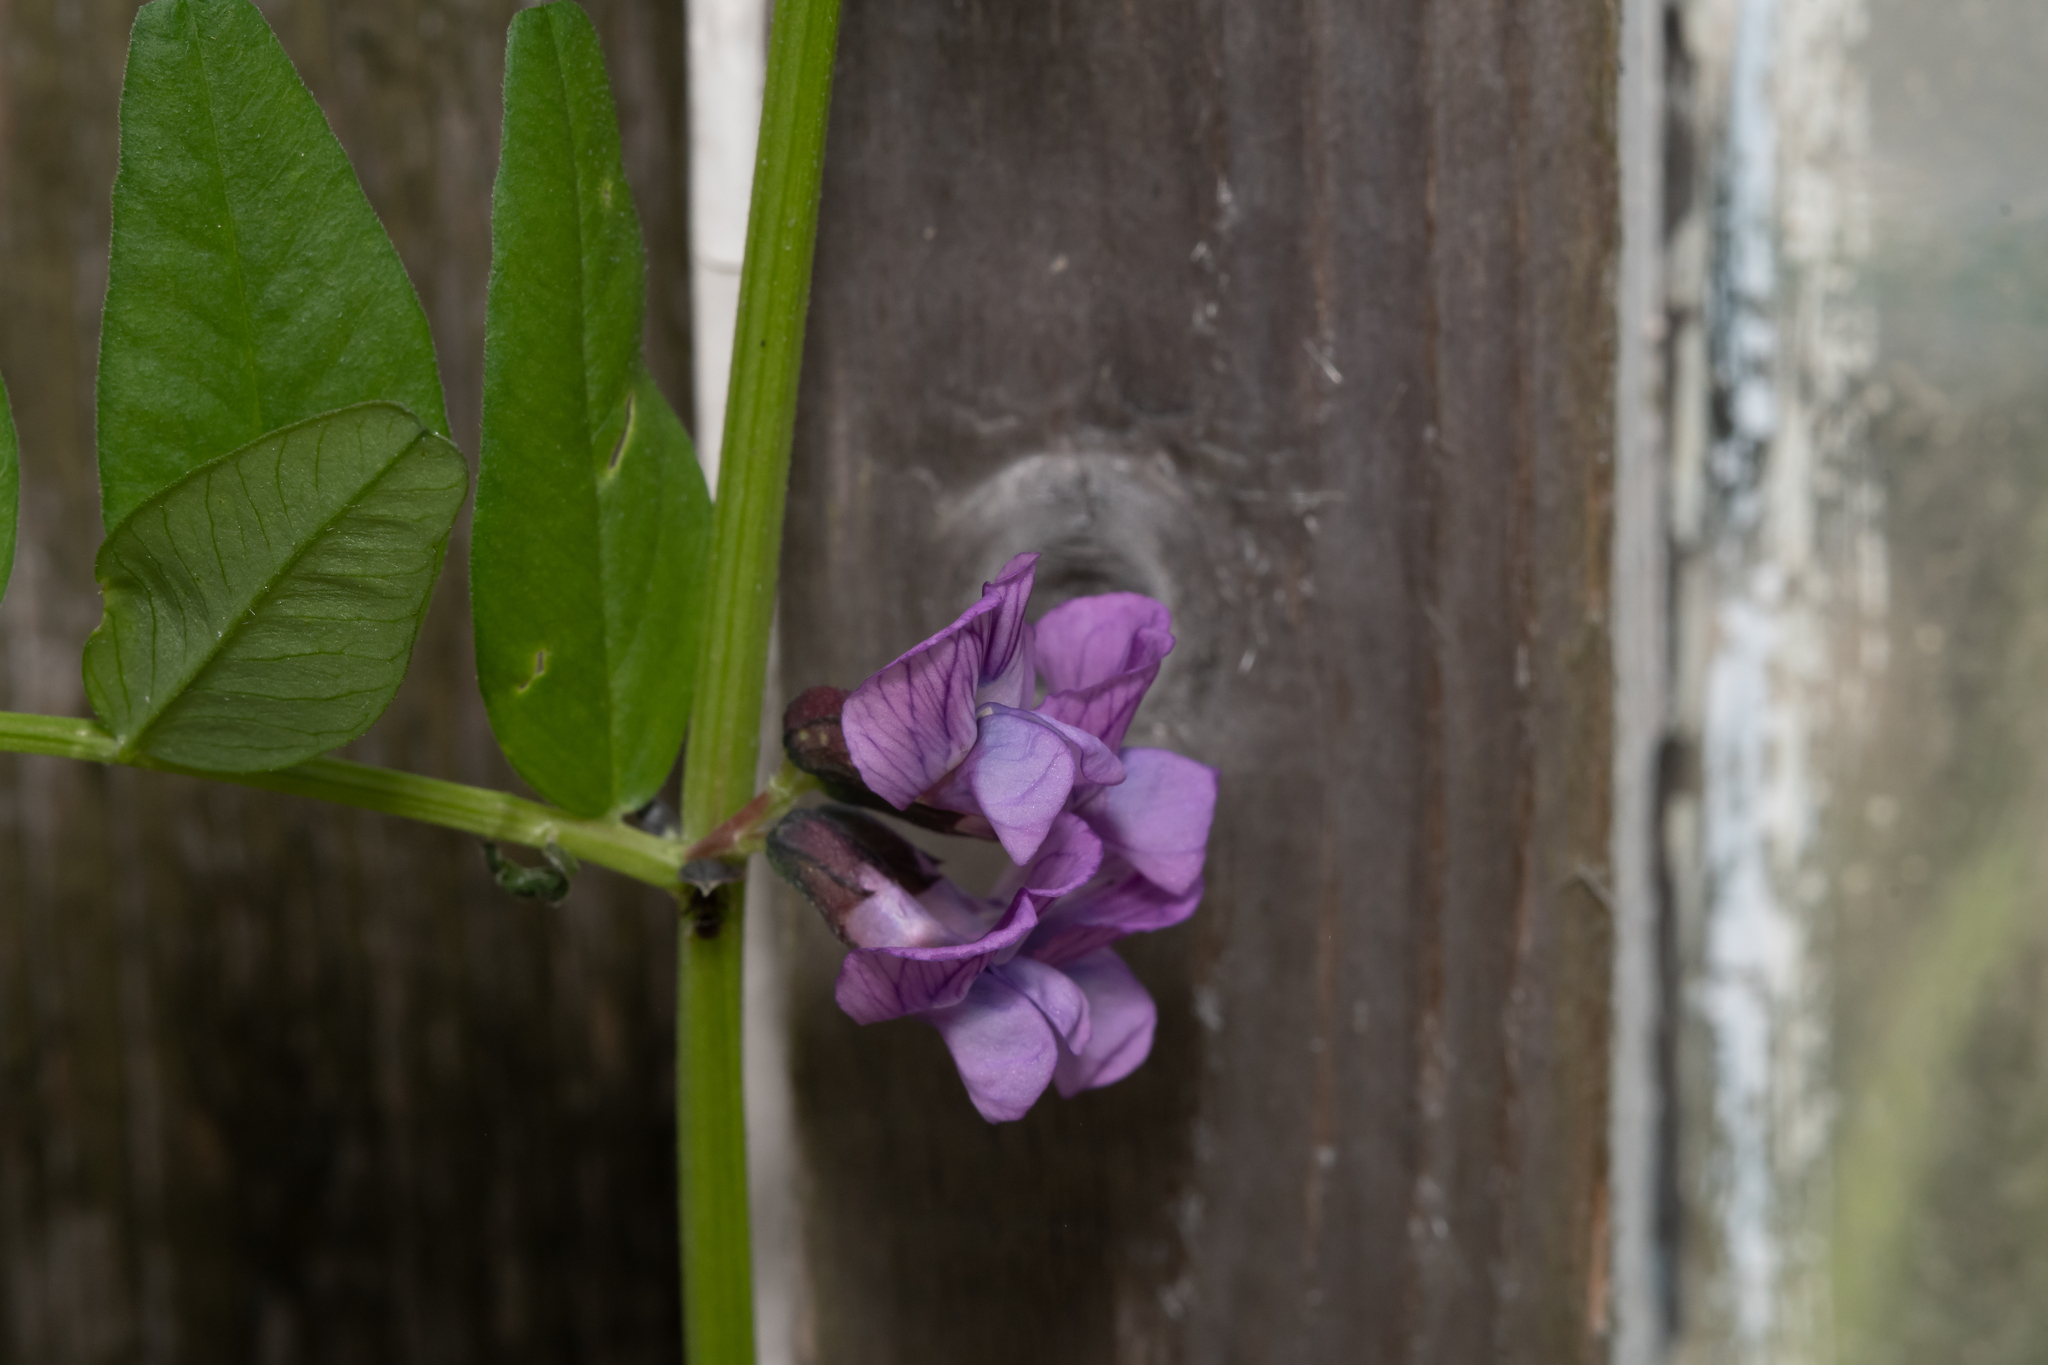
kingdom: Plantae
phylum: Tracheophyta
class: Magnoliopsida
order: Fabales
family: Fabaceae
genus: Vicia
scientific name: Vicia sepium
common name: Bush vetch
